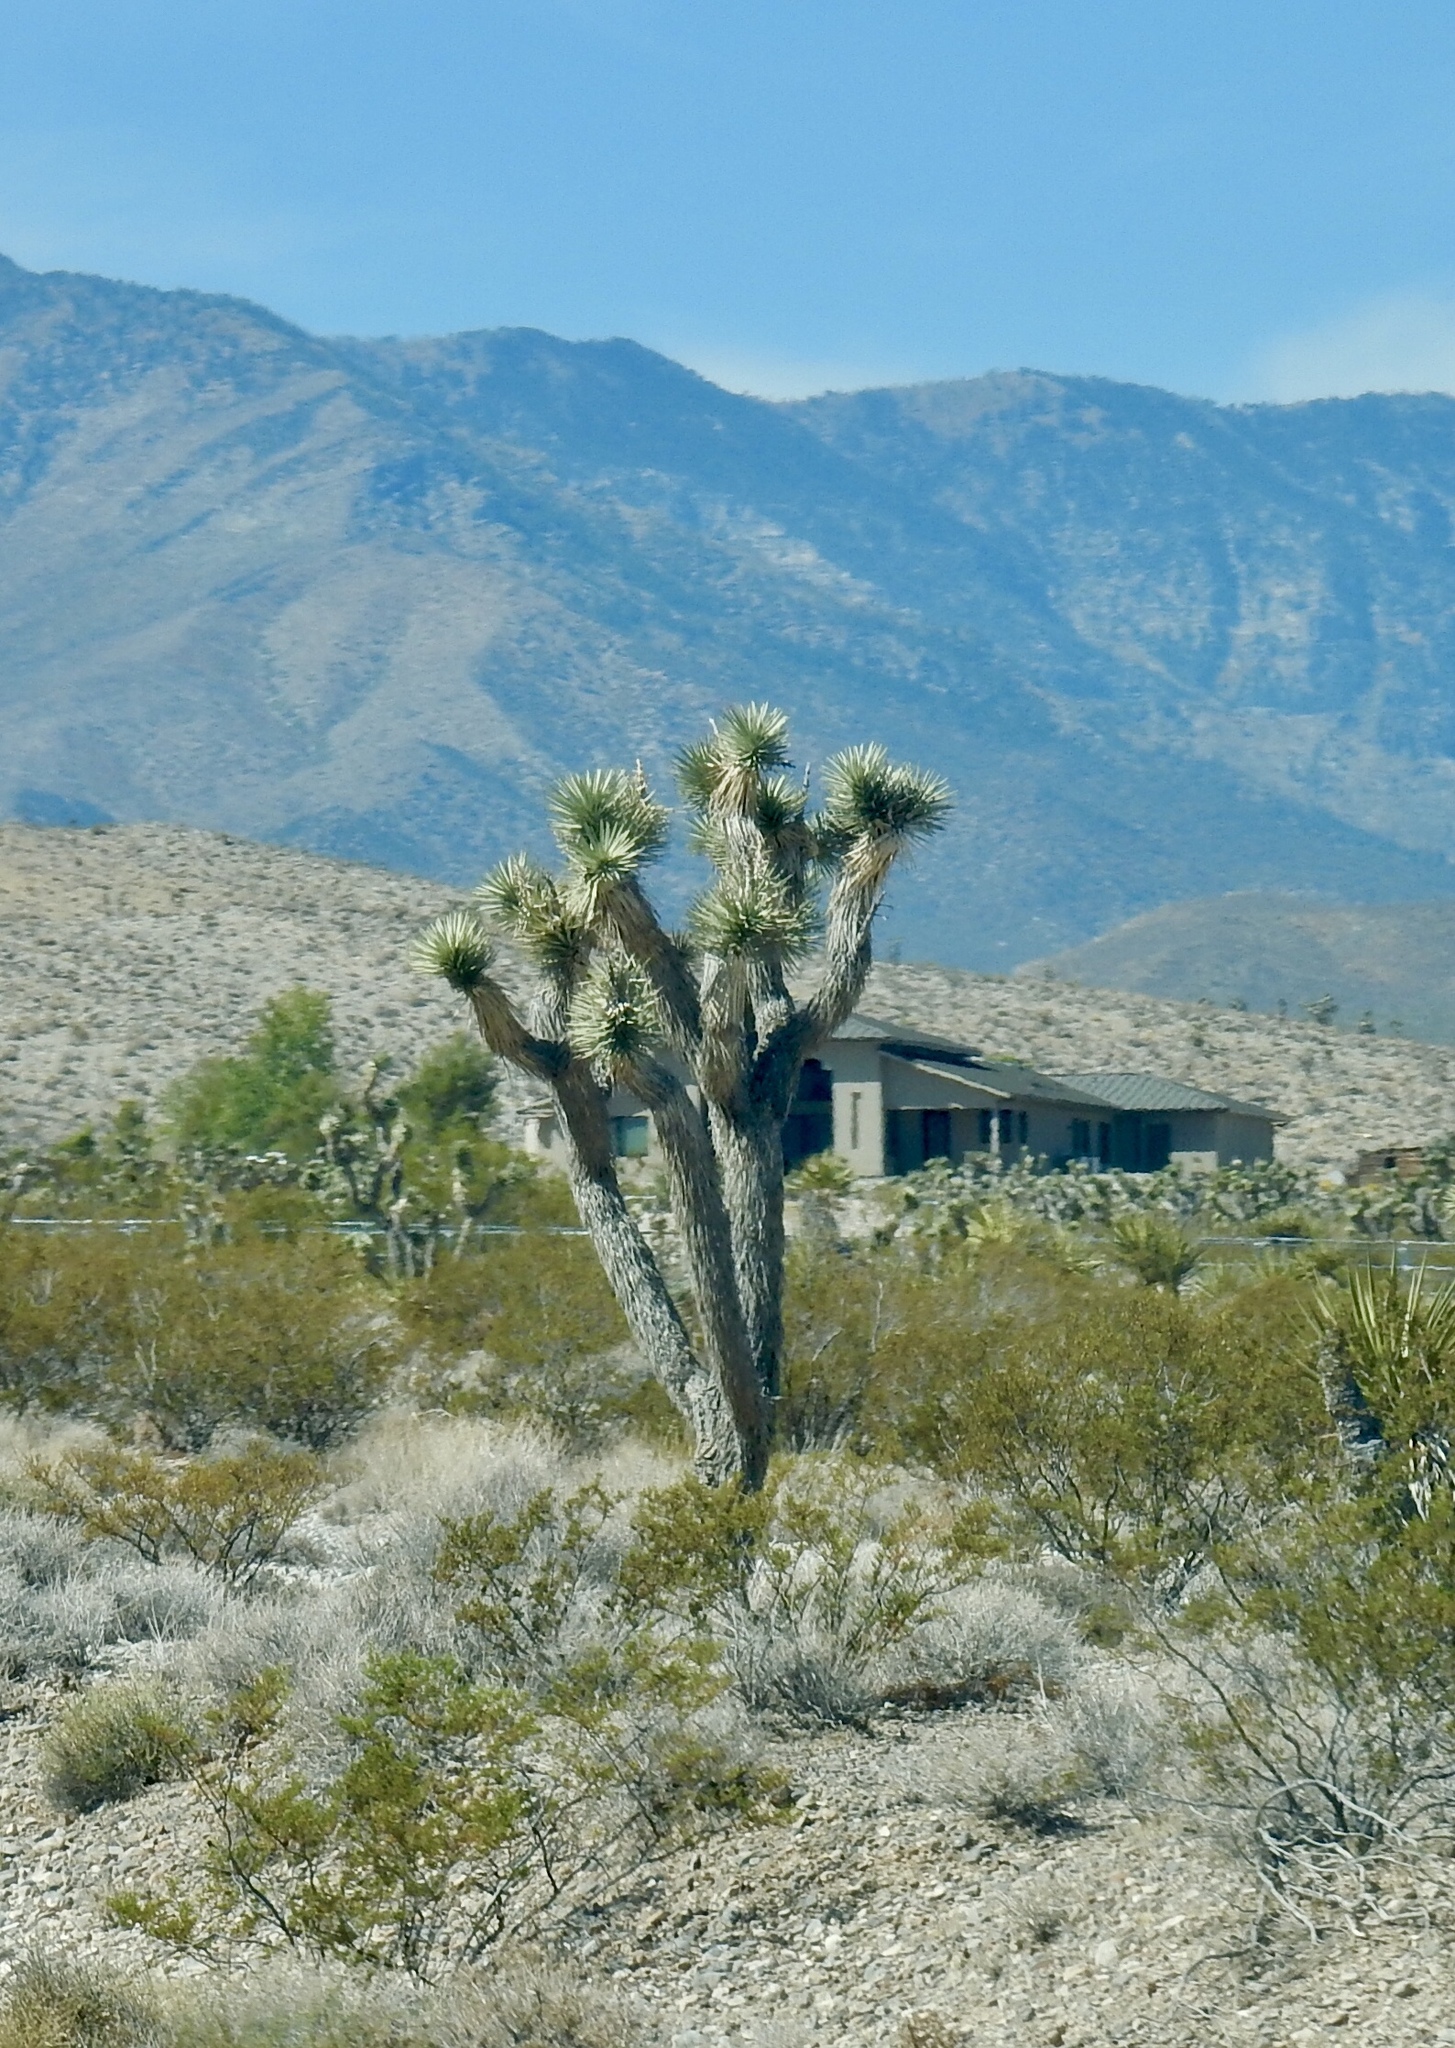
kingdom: Plantae
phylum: Tracheophyta
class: Liliopsida
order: Asparagales
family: Asparagaceae
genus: Yucca
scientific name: Yucca brevifolia
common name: Joshua tree
